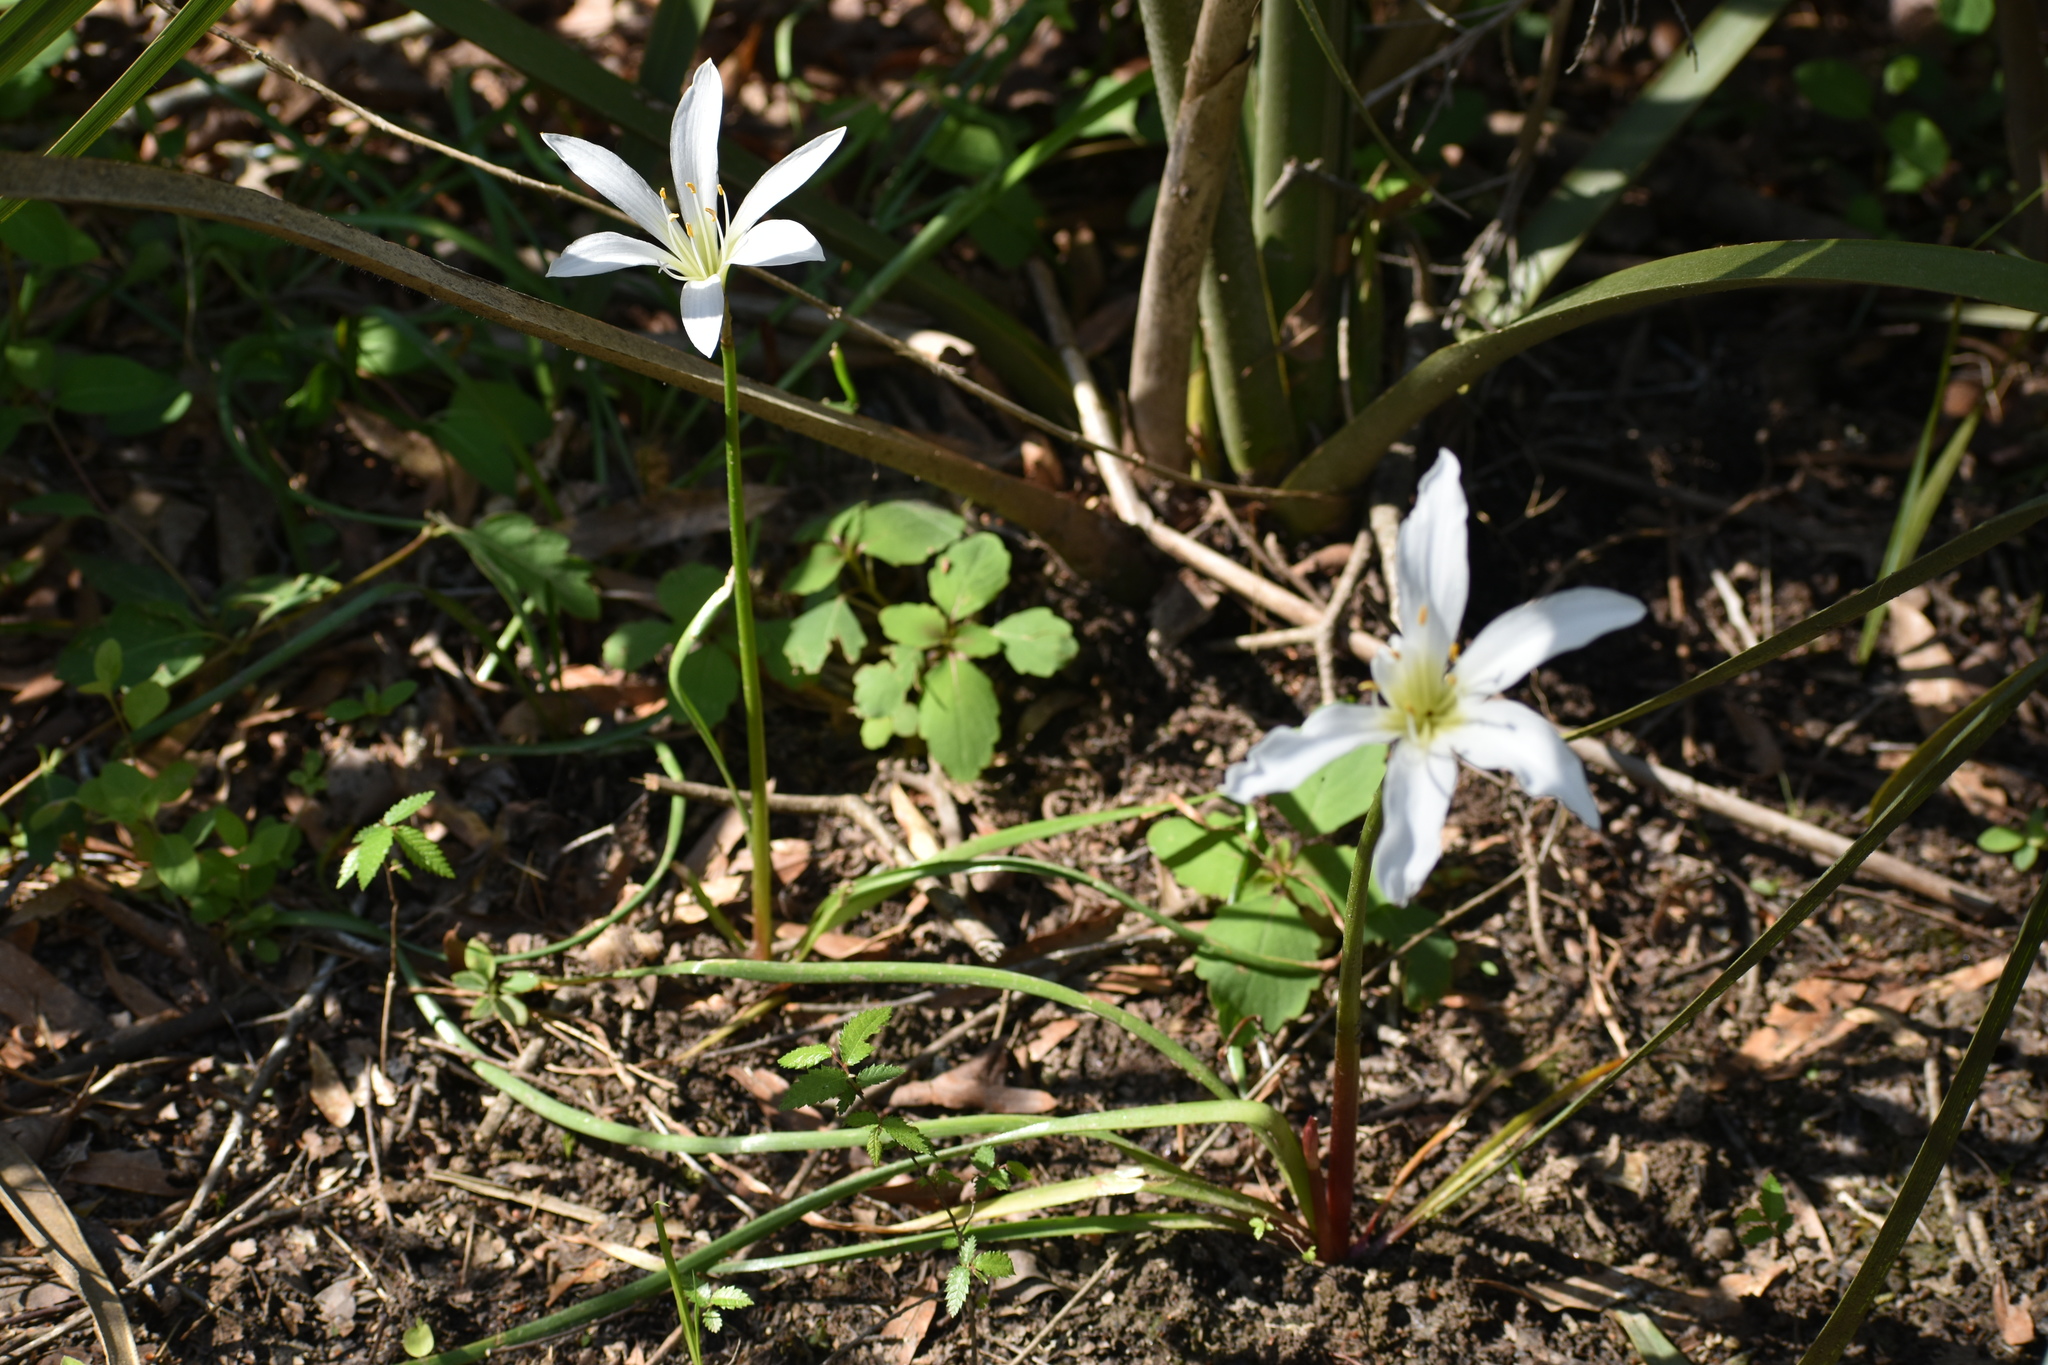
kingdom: Plantae
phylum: Tracheophyta
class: Liliopsida
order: Asparagales
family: Amaryllidaceae
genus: Zephyranthes
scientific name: Zephyranthes atamasco
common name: Atamasco lily
